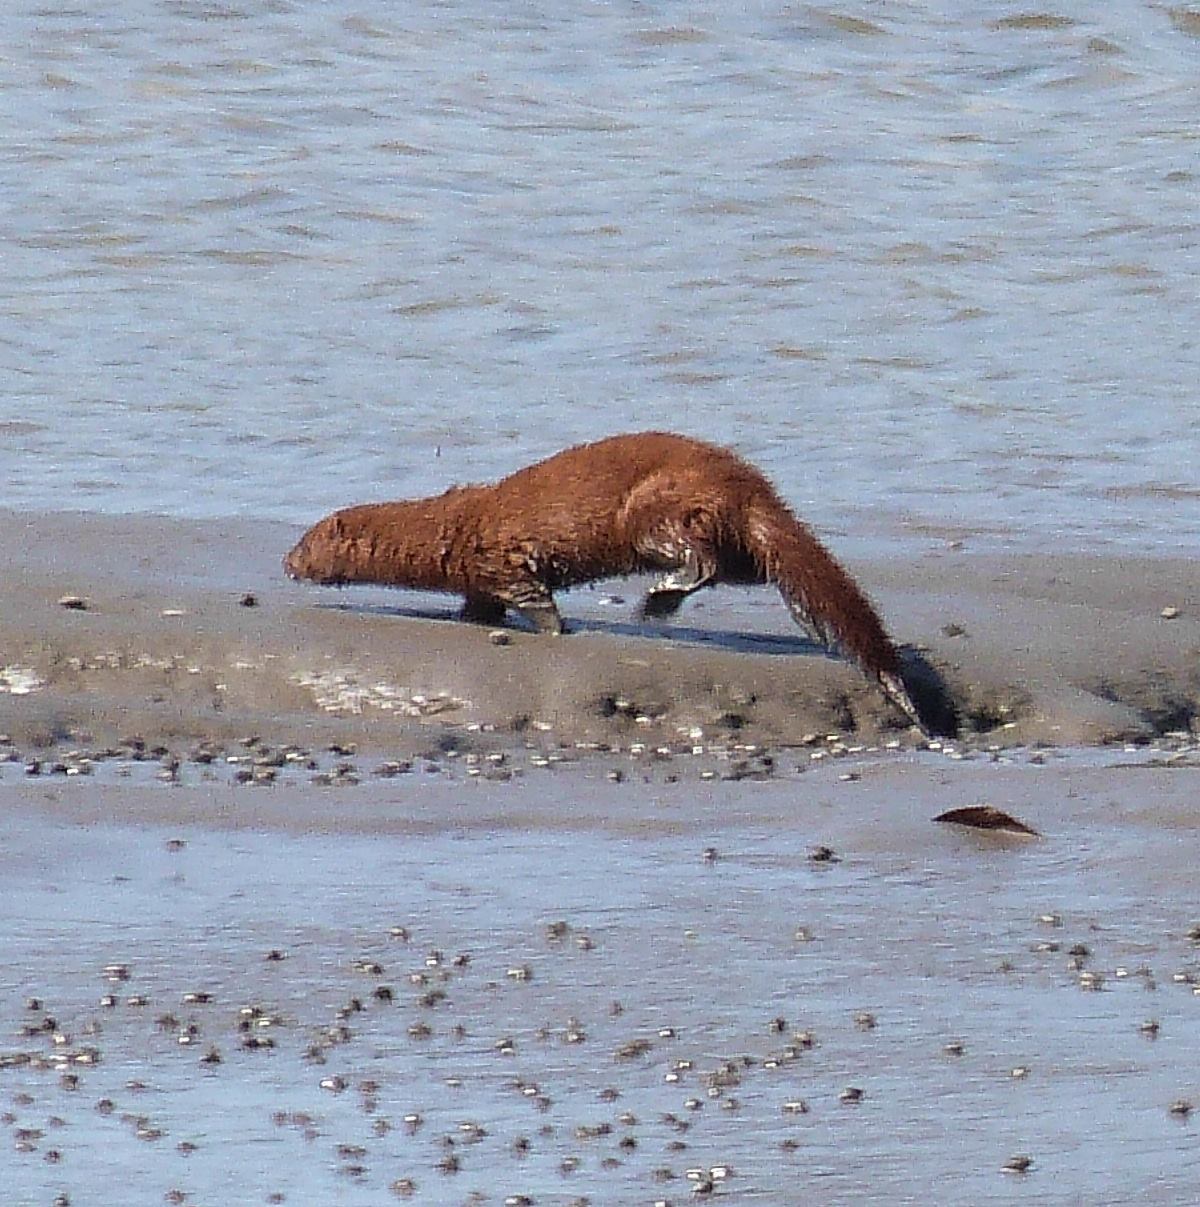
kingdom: Animalia
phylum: Chordata
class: Mammalia
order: Carnivora
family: Mustelidae
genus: Mustela
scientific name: Mustela
